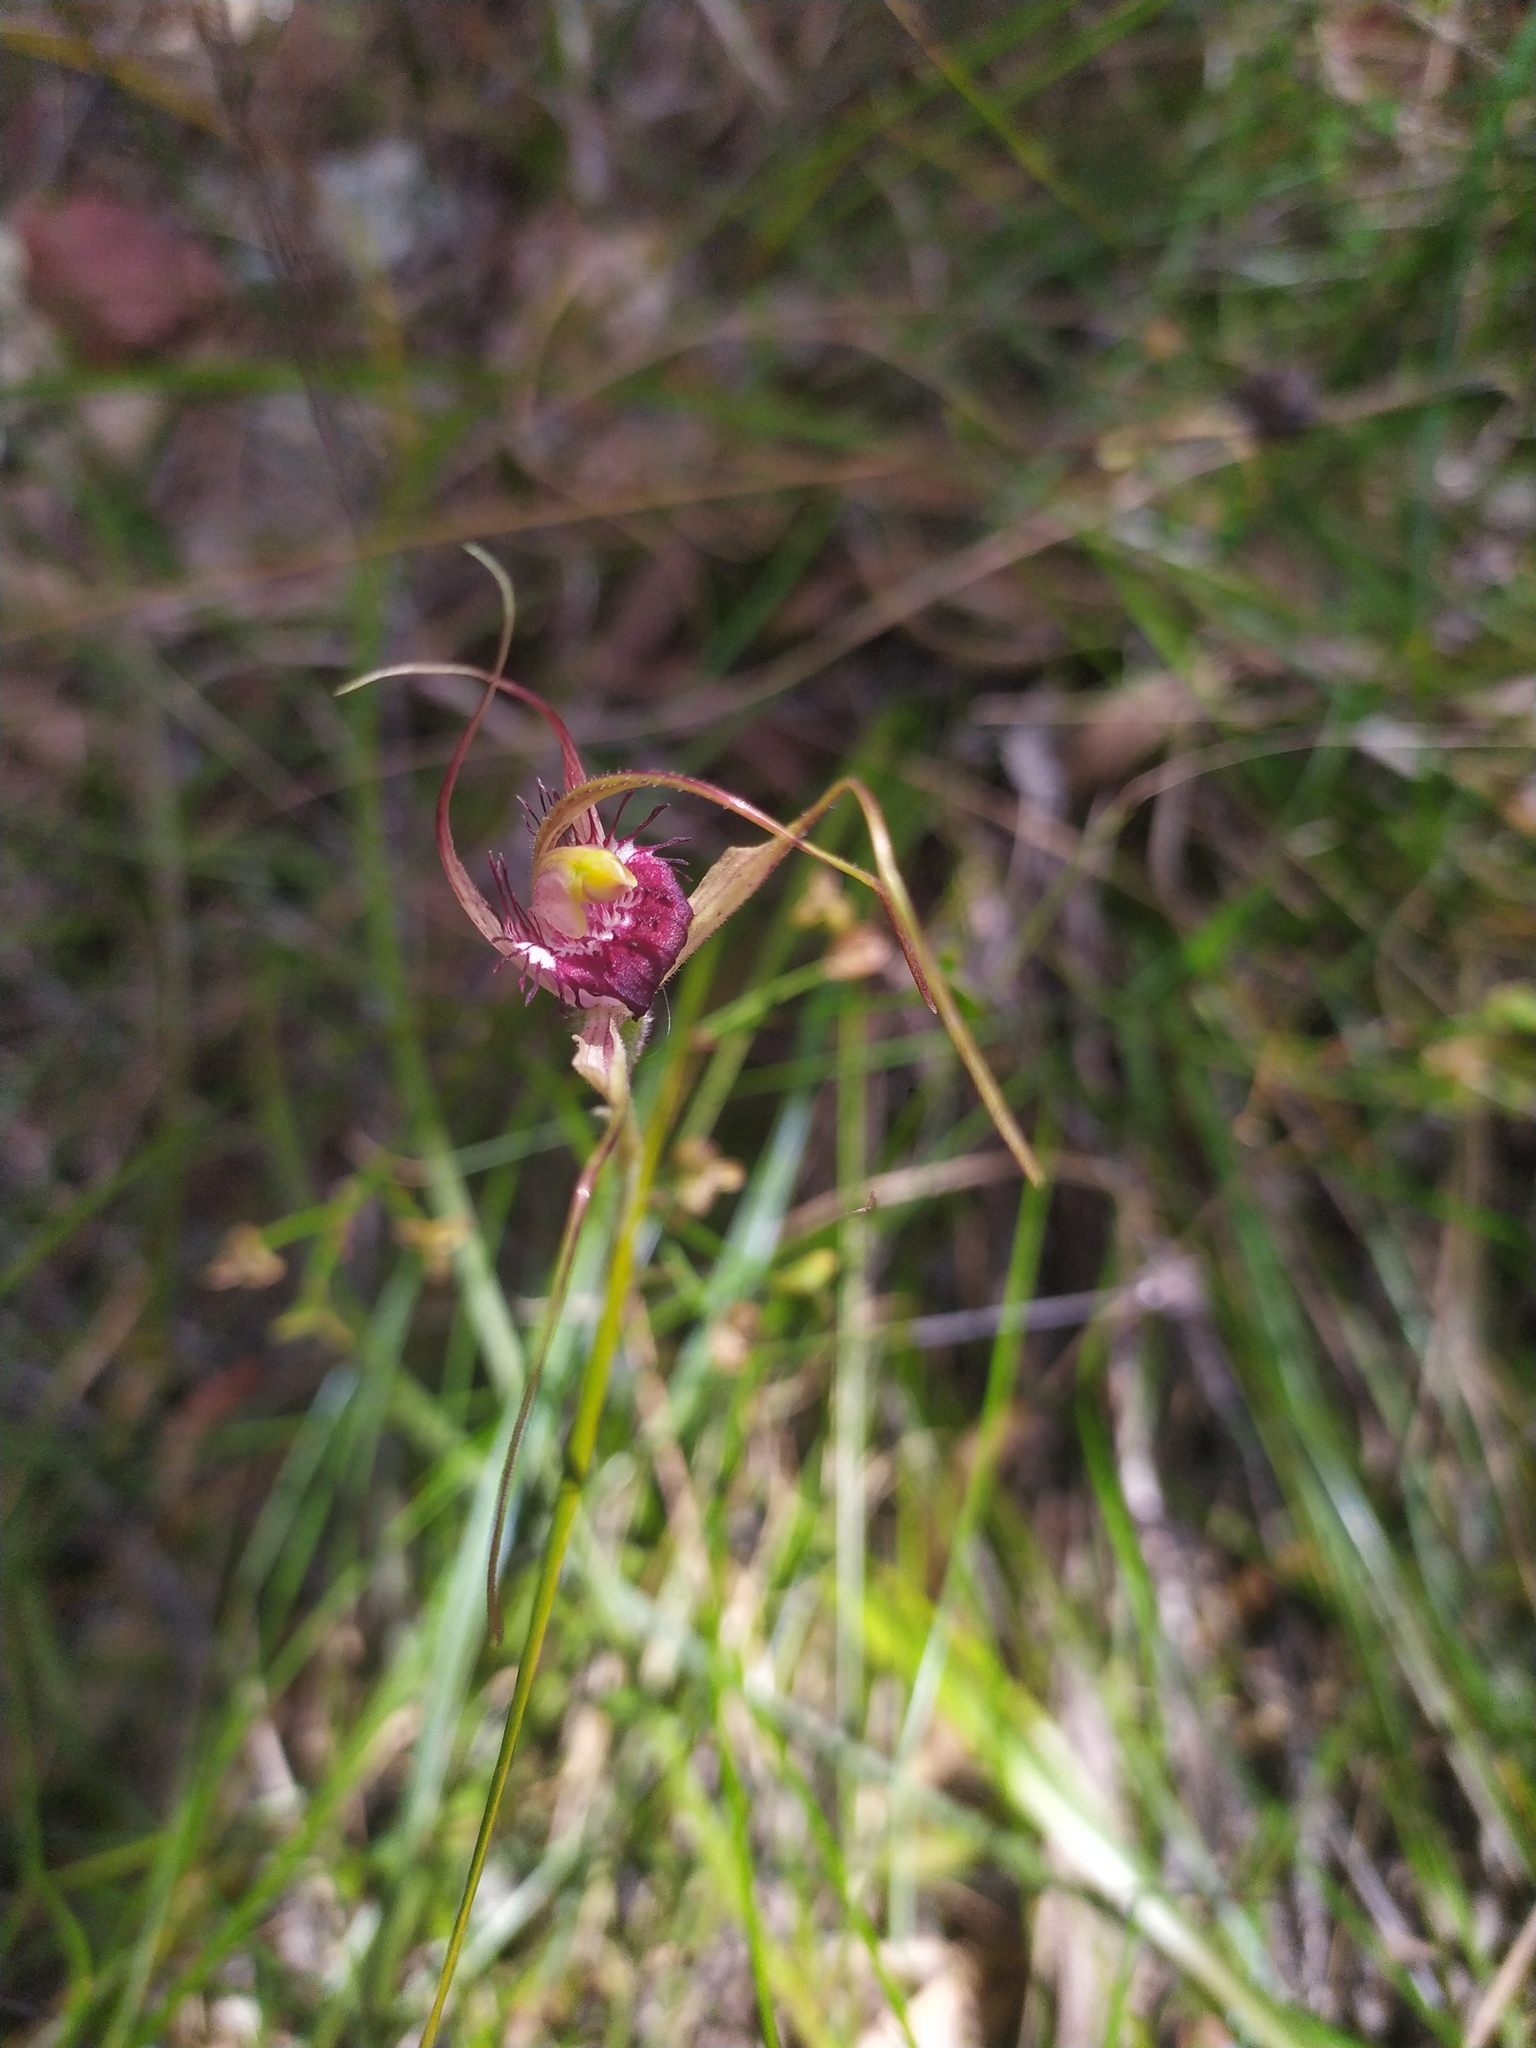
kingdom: Plantae
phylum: Tracheophyta
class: Liliopsida
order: Asparagales
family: Orchidaceae
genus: Caladenia
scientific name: Caladenia arenicola
